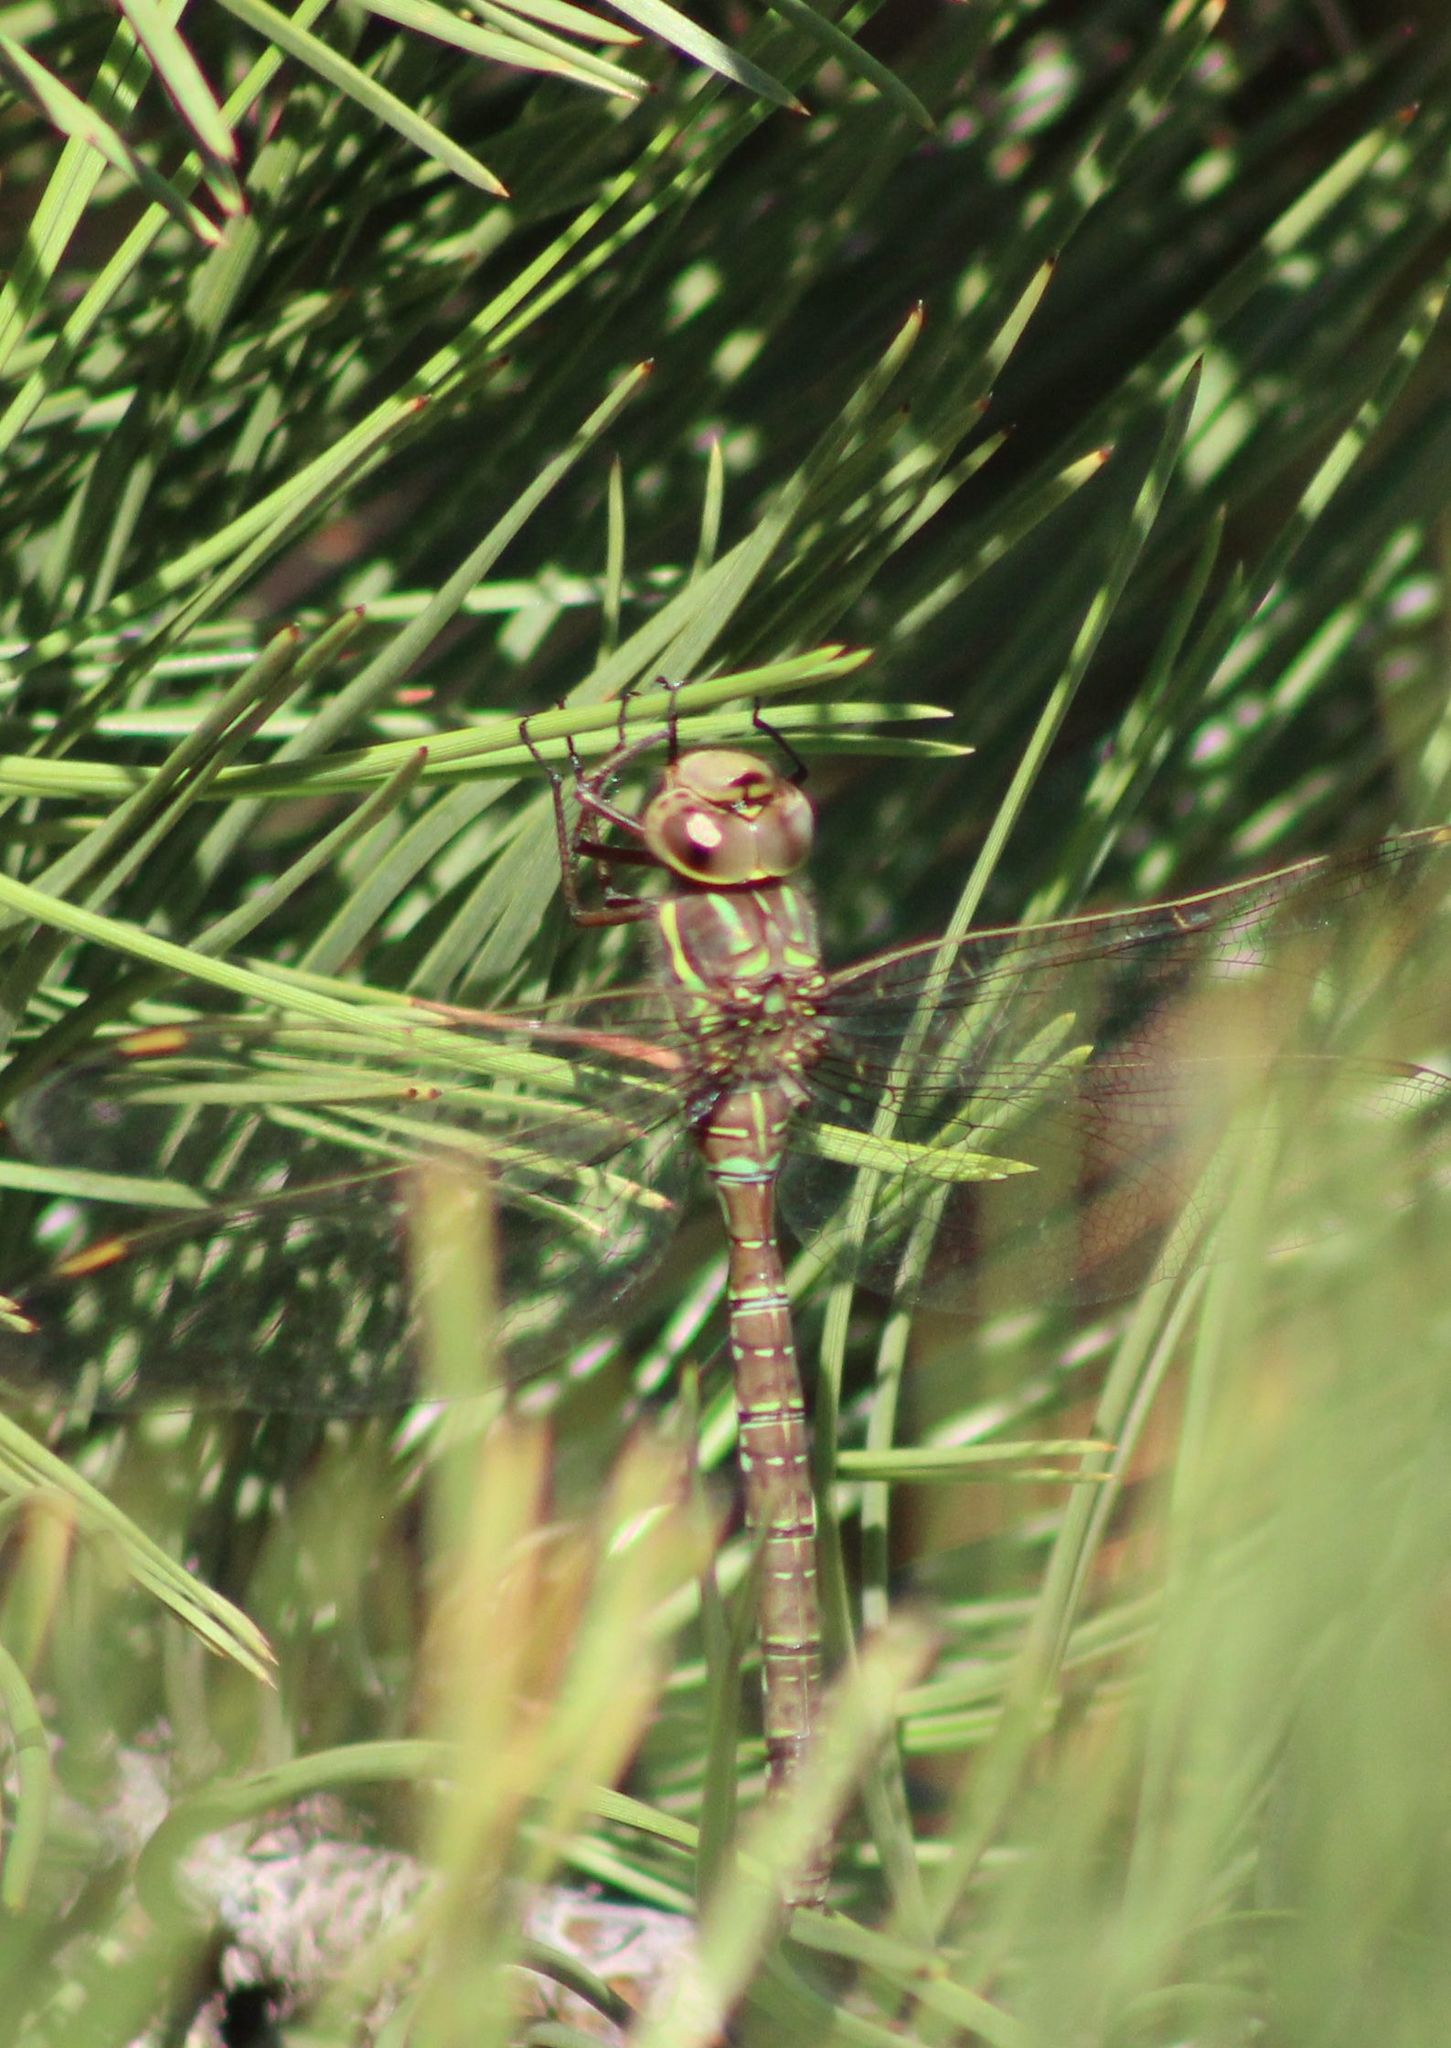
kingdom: Animalia
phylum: Arthropoda
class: Insecta
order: Odonata
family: Aeshnidae
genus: Aeshna
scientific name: Aeshna umbrosa
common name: Shadow darner
